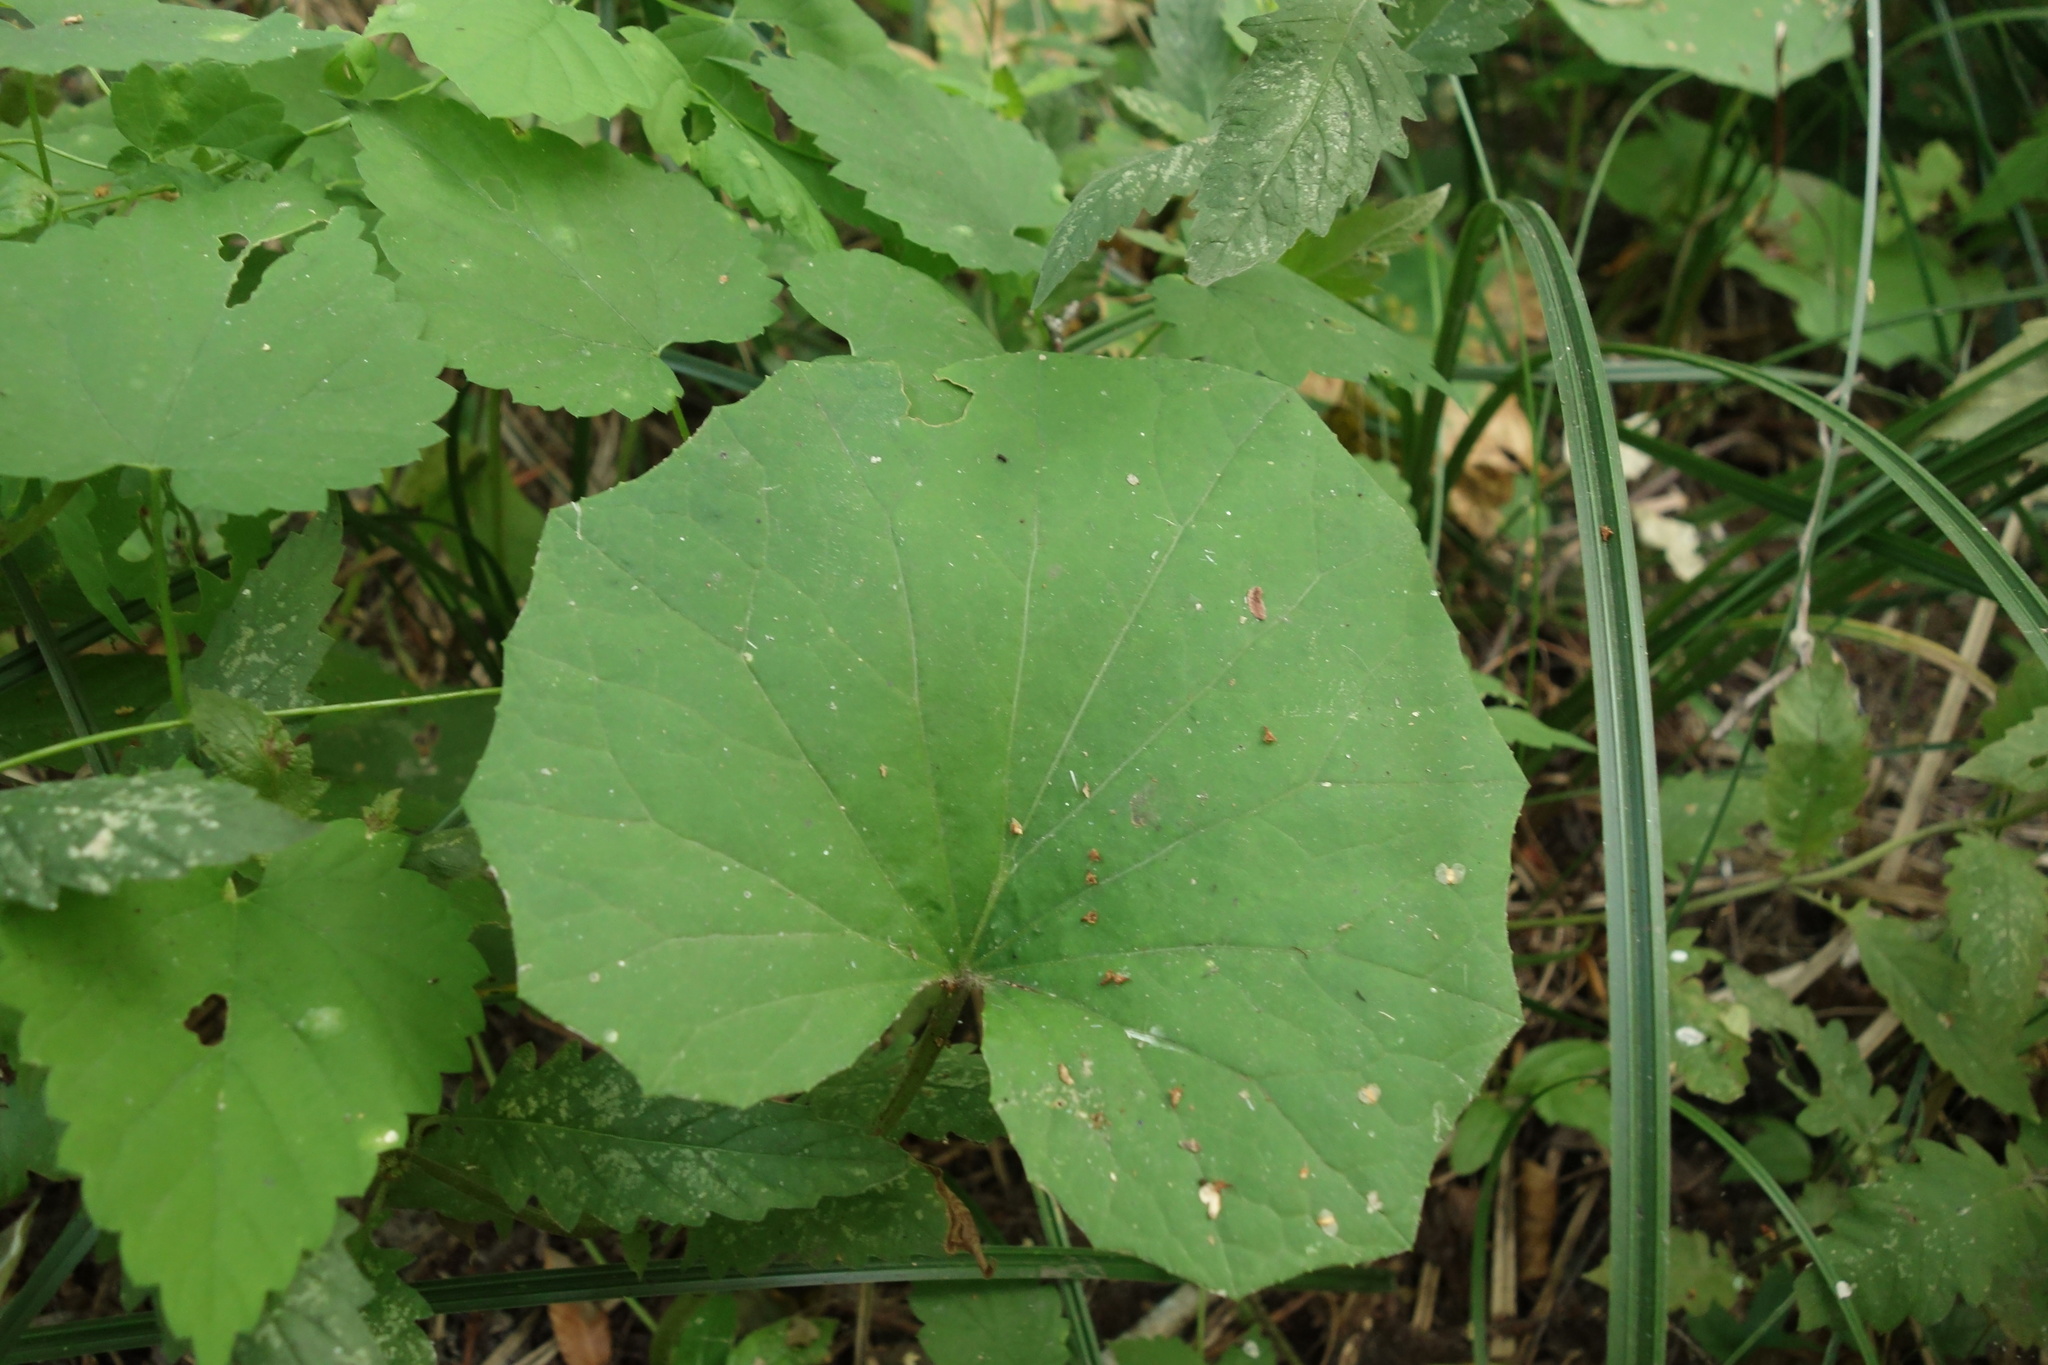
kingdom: Plantae
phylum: Tracheophyta
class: Magnoliopsida
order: Asterales
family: Asteraceae
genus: Tussilago
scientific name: Tussilago farfara
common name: Coltsfoot
